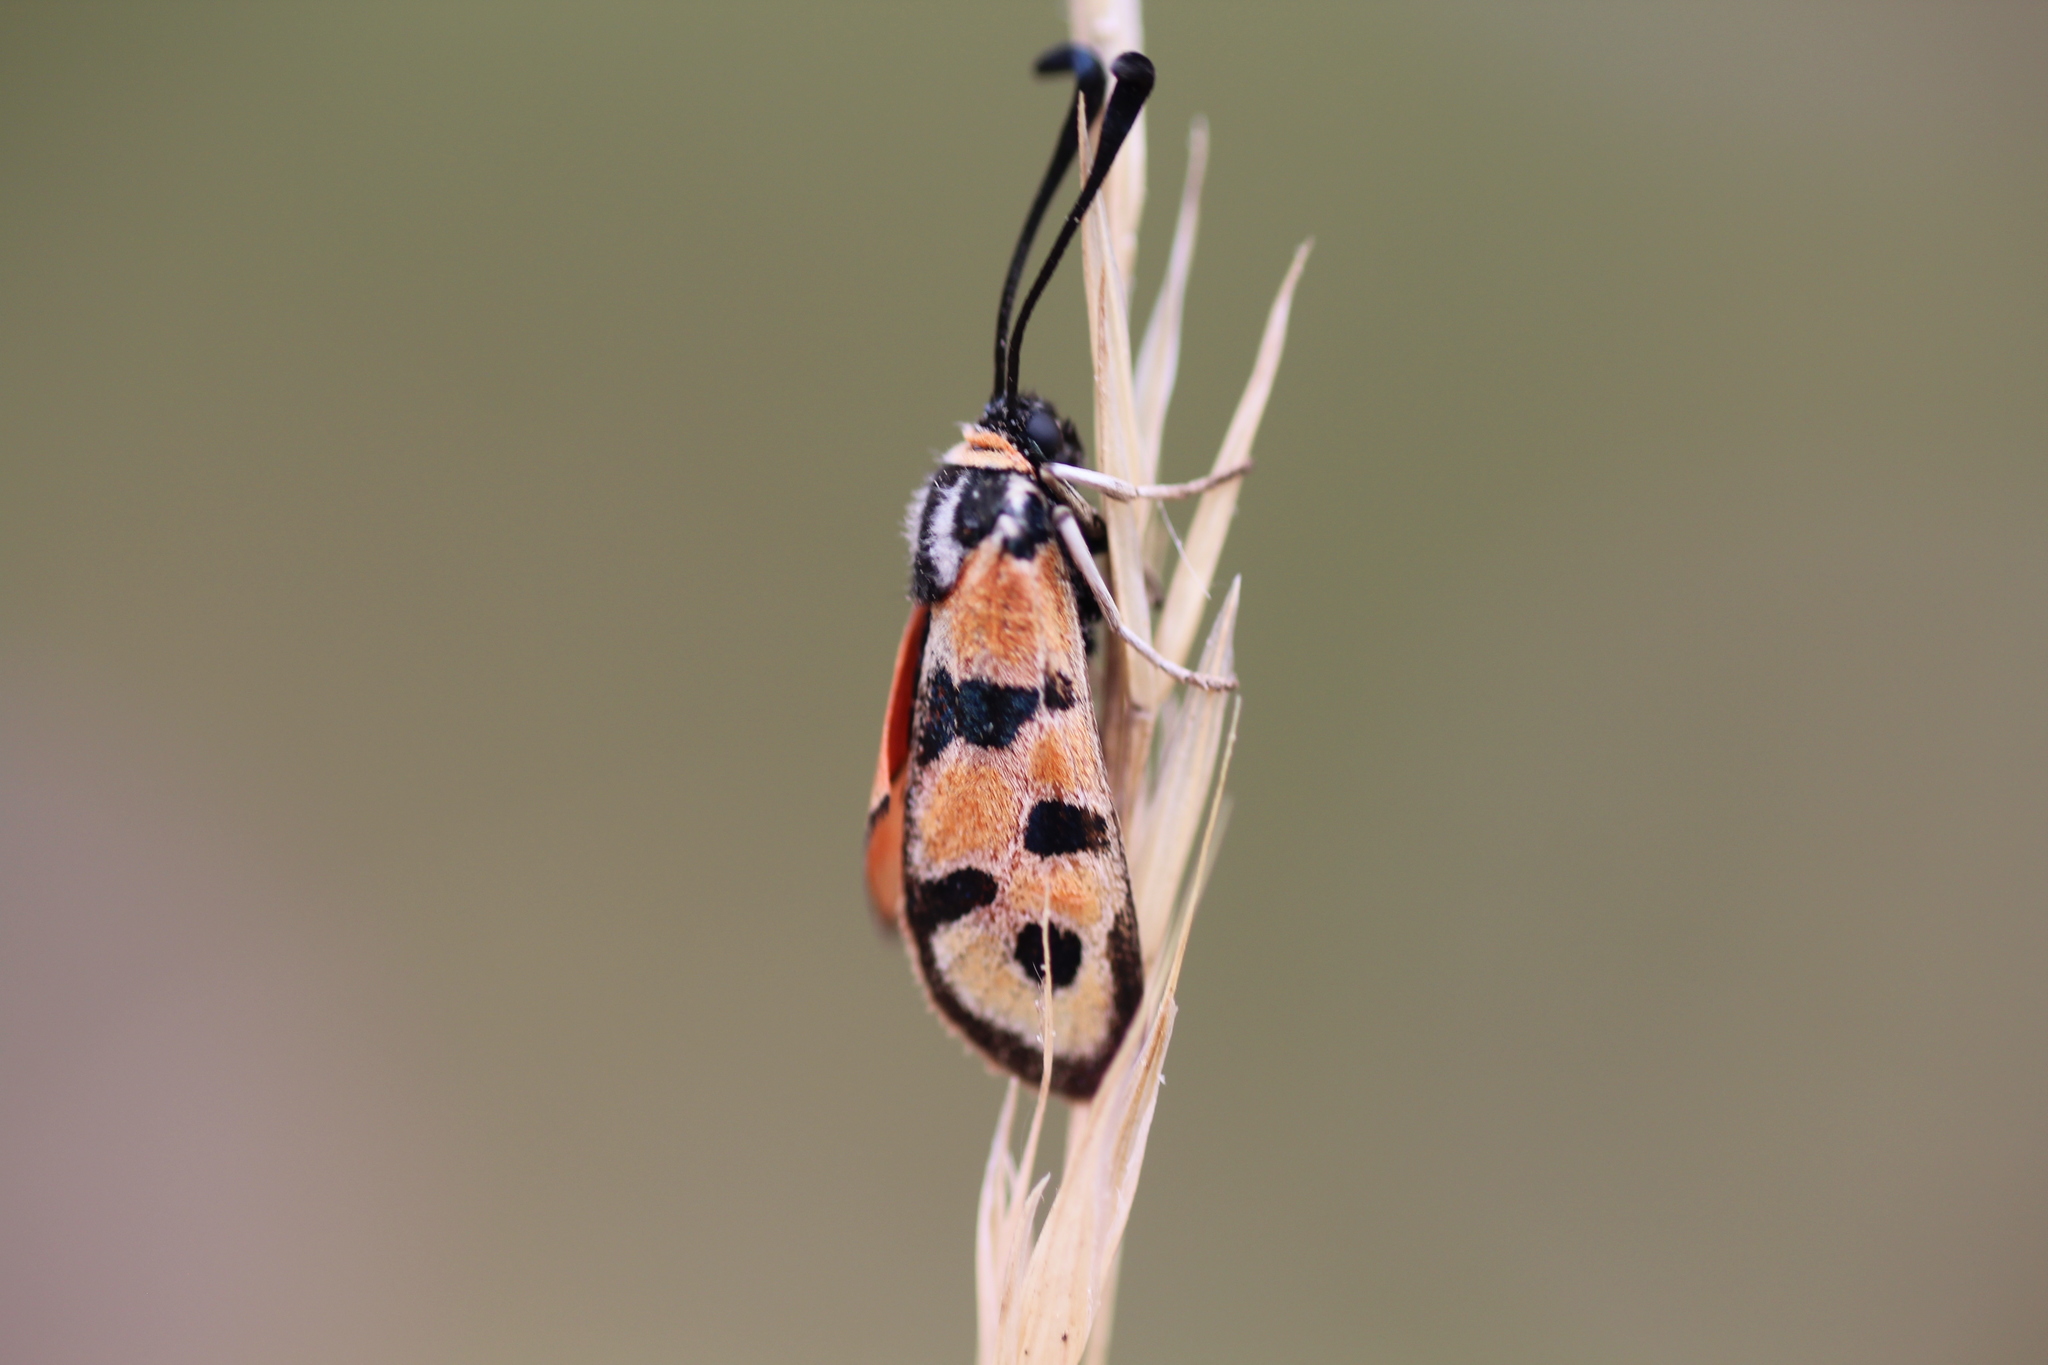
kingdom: Animalia
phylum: Arthropoda
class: Insecta
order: Lepidoptera
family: Zygaenidae
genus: Zygaena
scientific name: Zygaena fausta
